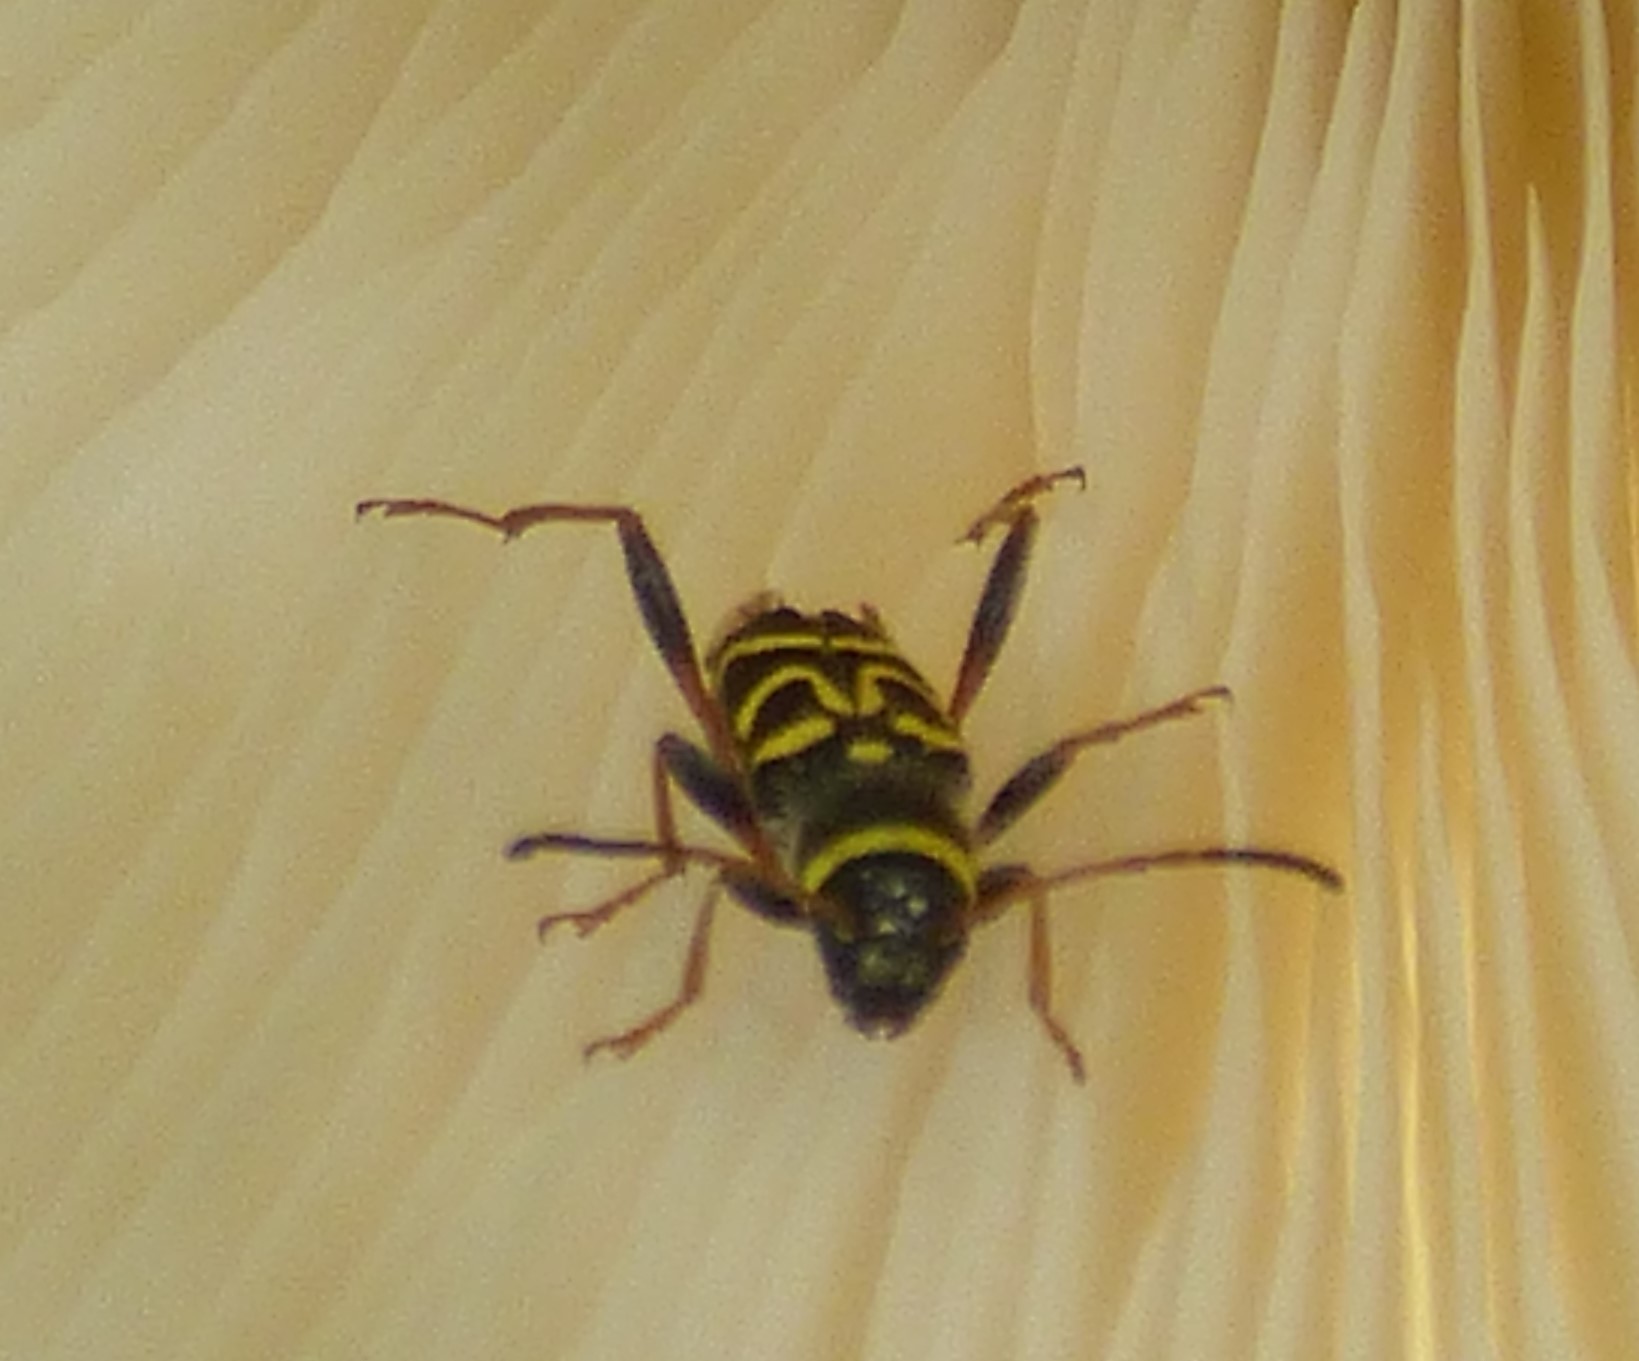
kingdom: Animalia
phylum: Arthropoda
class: Insecta
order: Coleoptera
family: Cerambycidae
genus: Clytus
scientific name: Clytus ruricola
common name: Round-necked longhorn beetle
